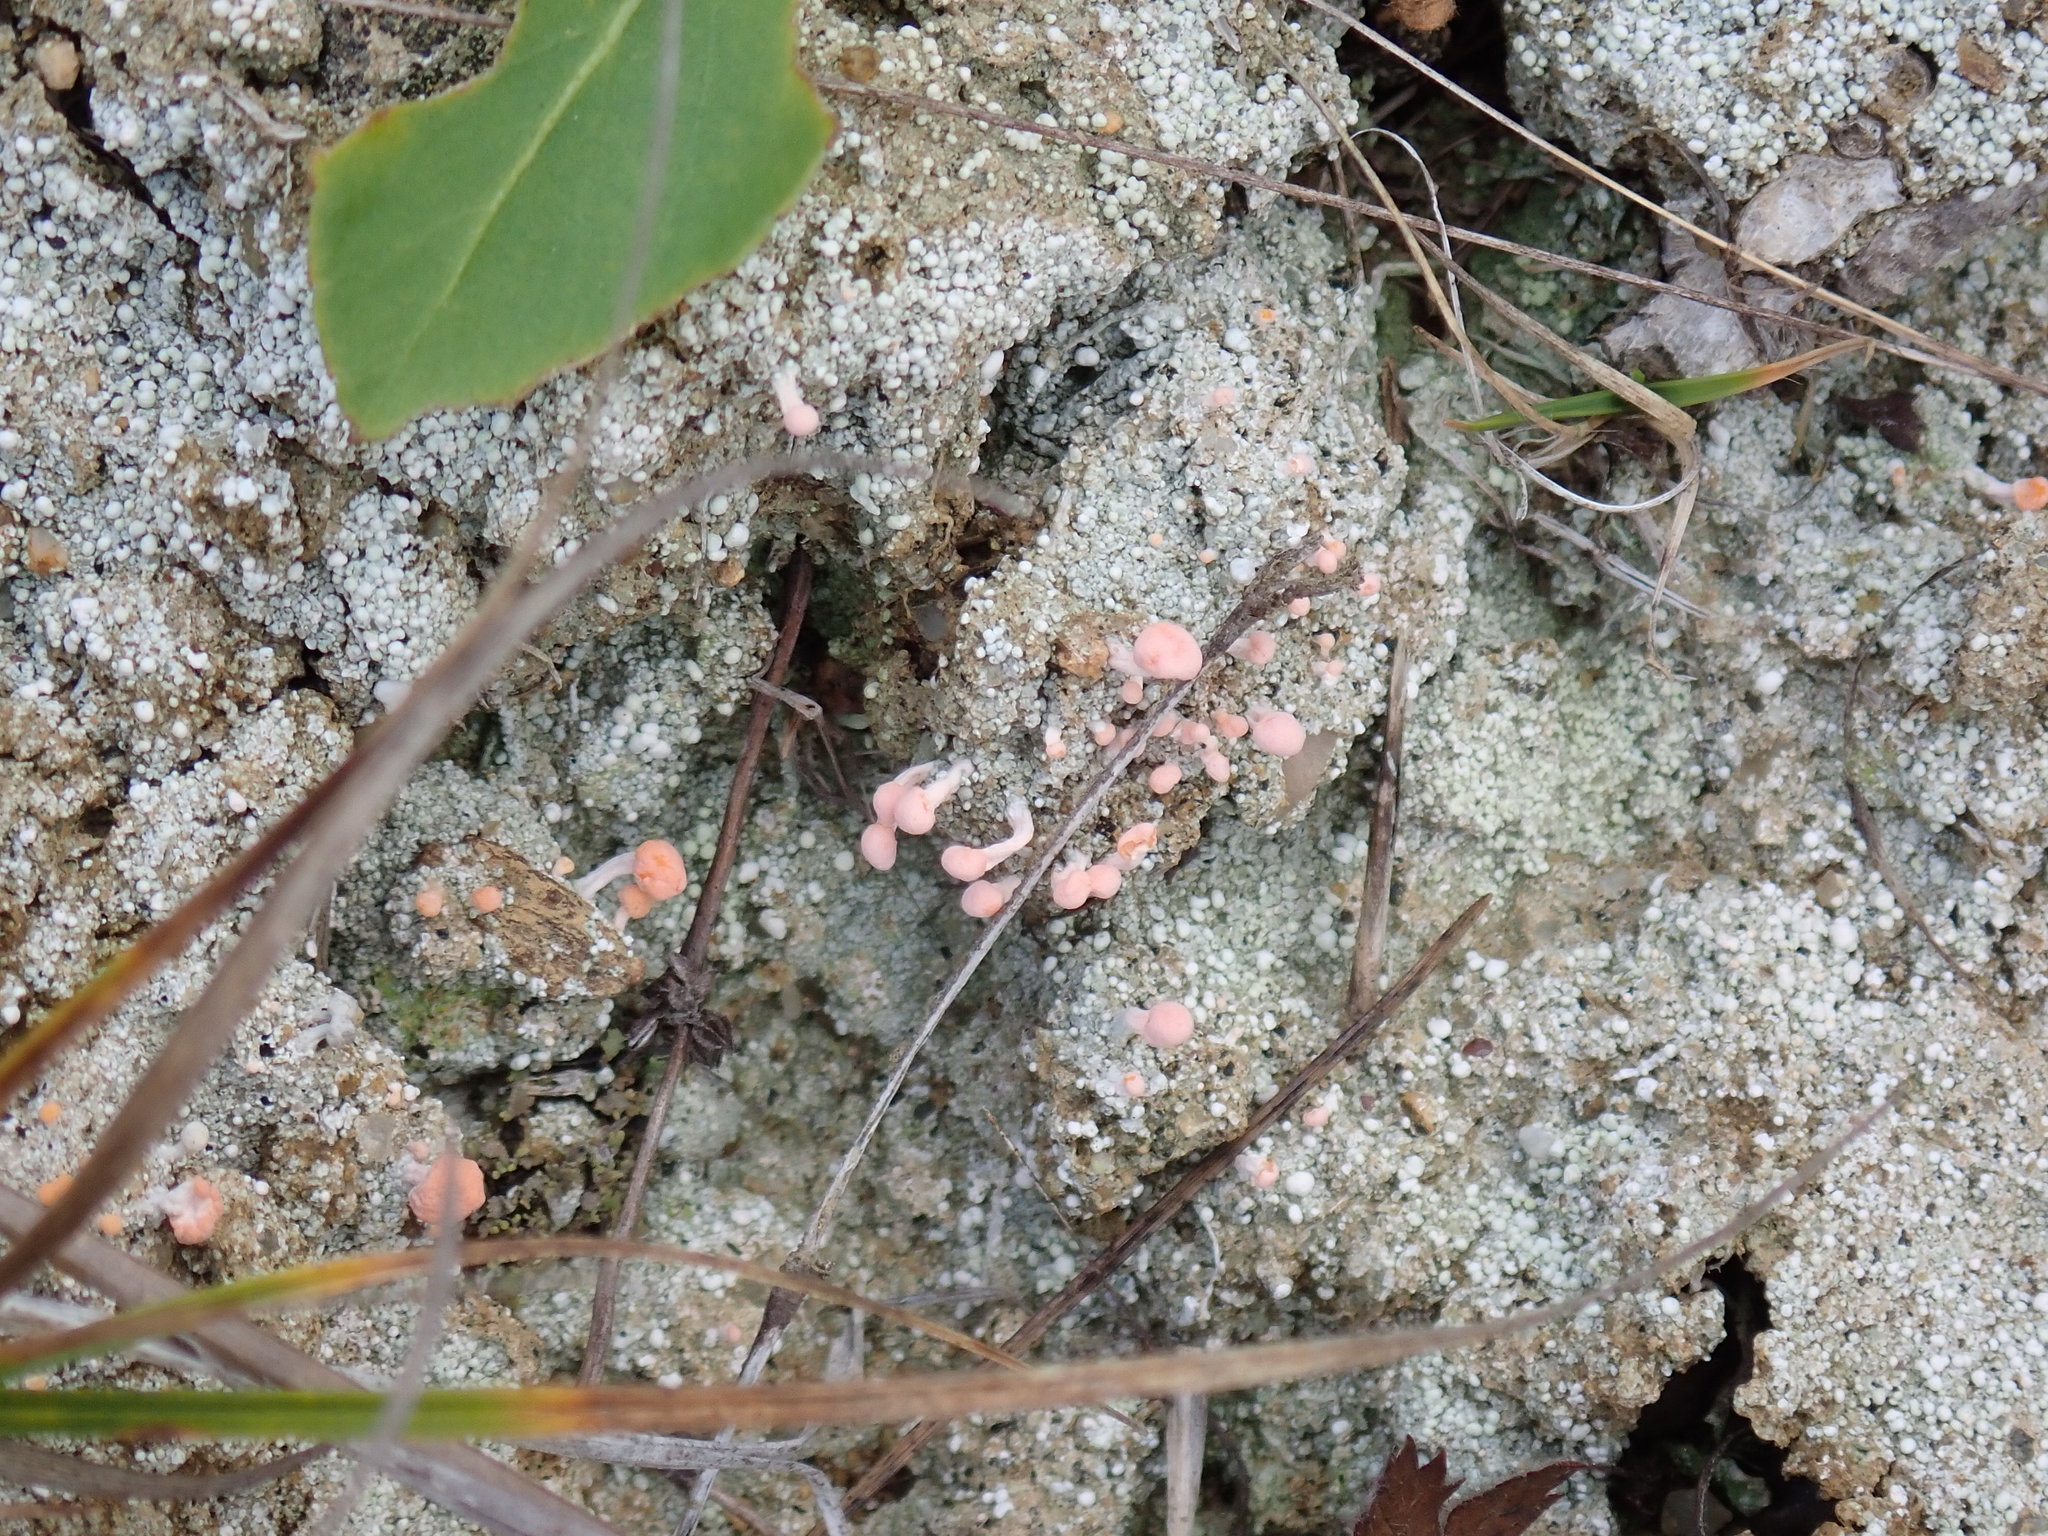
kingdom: Fungi
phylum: Ascomycota
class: Lecanoromycetes
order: Pertusariales
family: Icmadophilaceae
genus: Dibaeis
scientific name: Dibaeis baeomyces
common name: Pink earth lichen
